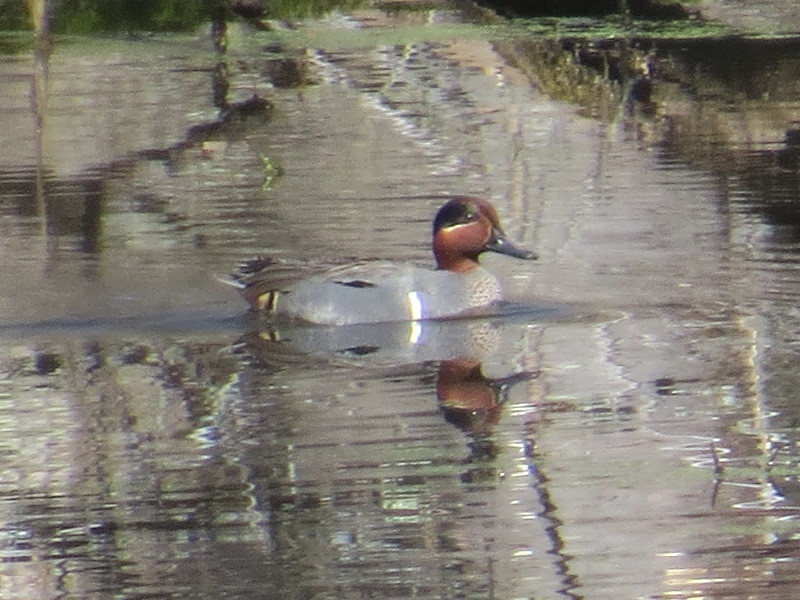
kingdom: Animalia
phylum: Chordata
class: Aves
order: Anseriformes
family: Anatidae
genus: Anas
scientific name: Anas crecca
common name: Eurasian teal
